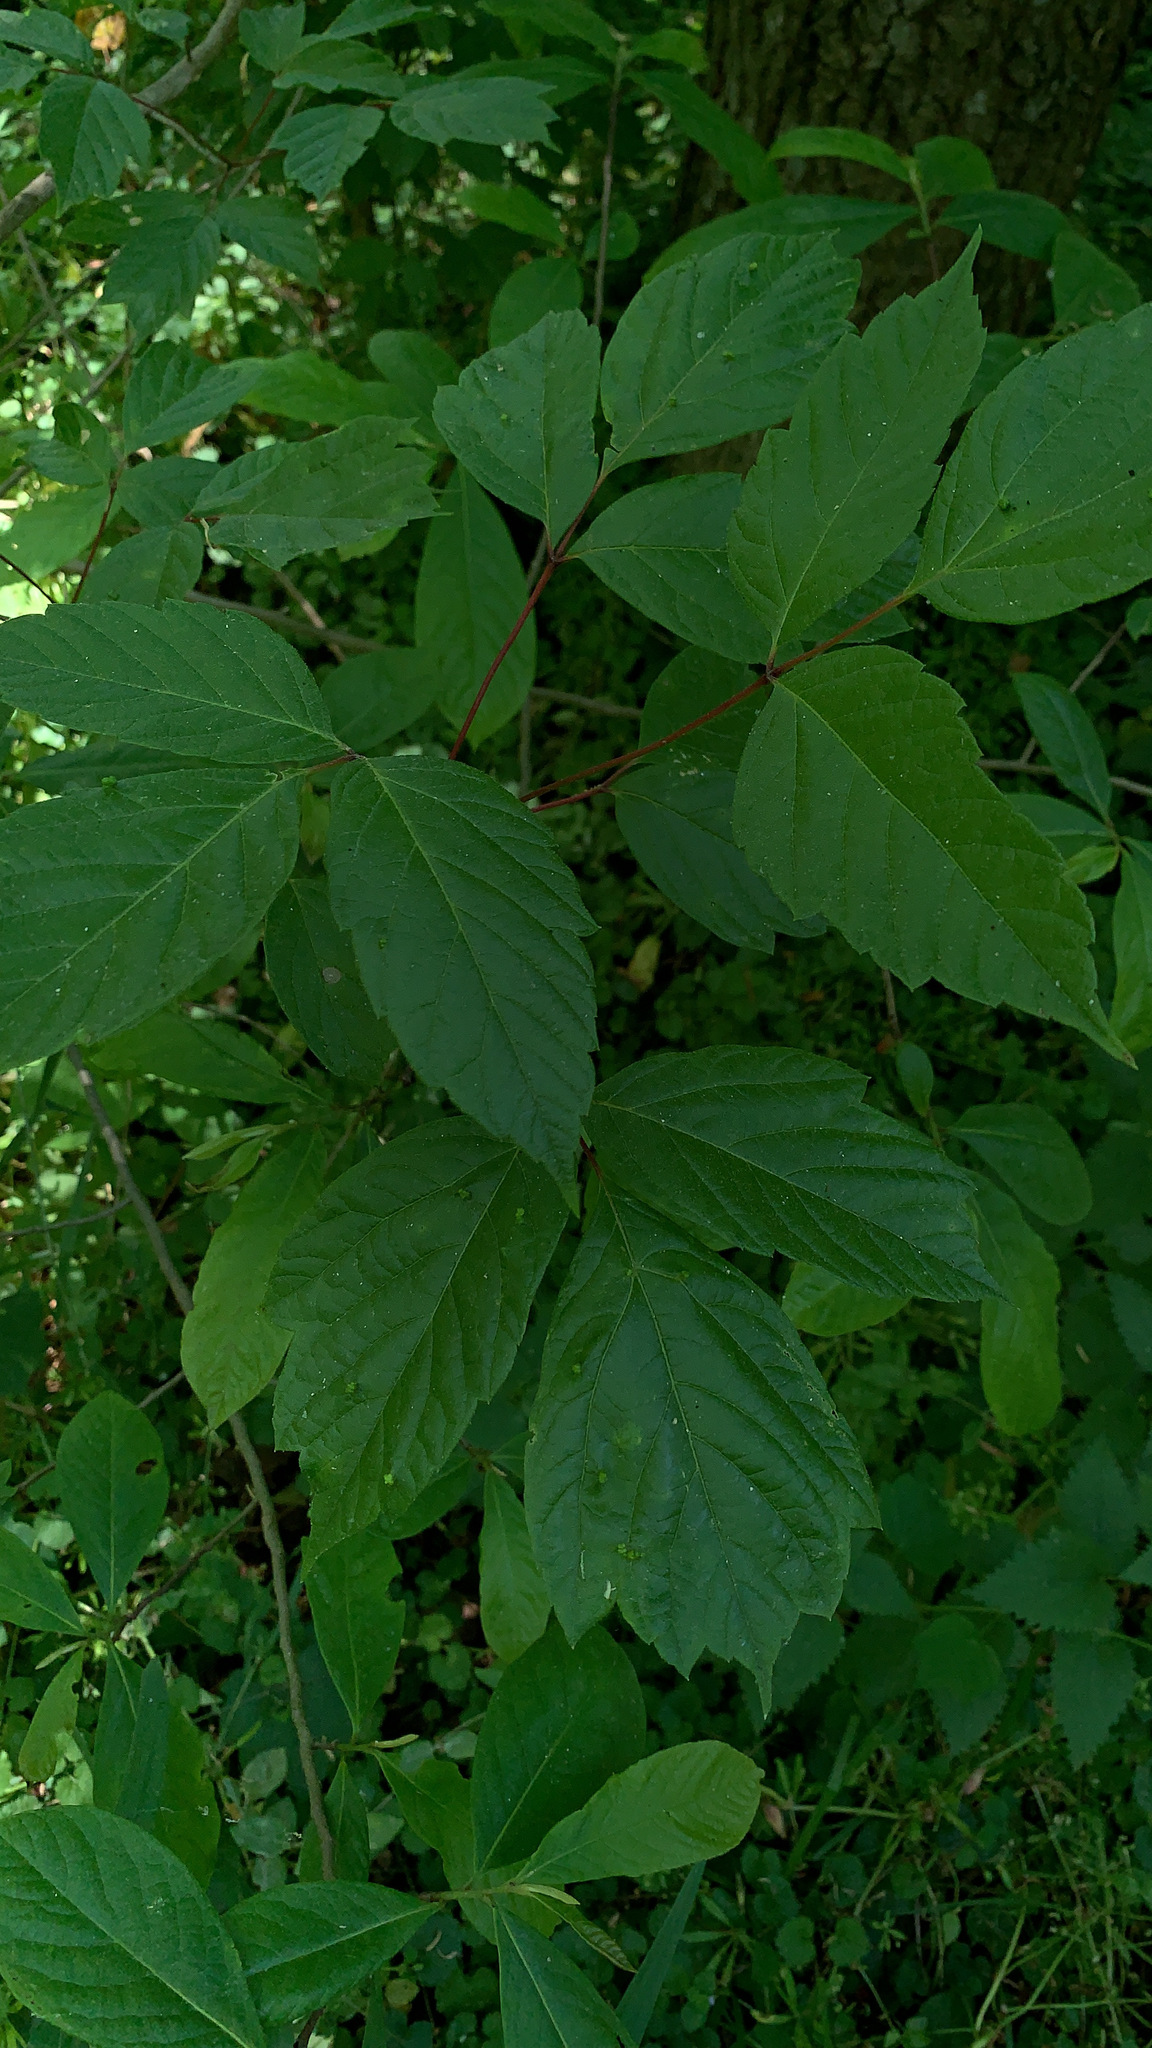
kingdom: Plantae
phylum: Tracheophyta
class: Magnoliopsida
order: Sapindales
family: Sapindaceae
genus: Acer
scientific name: Acer negundo
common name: Ashleaf maple
